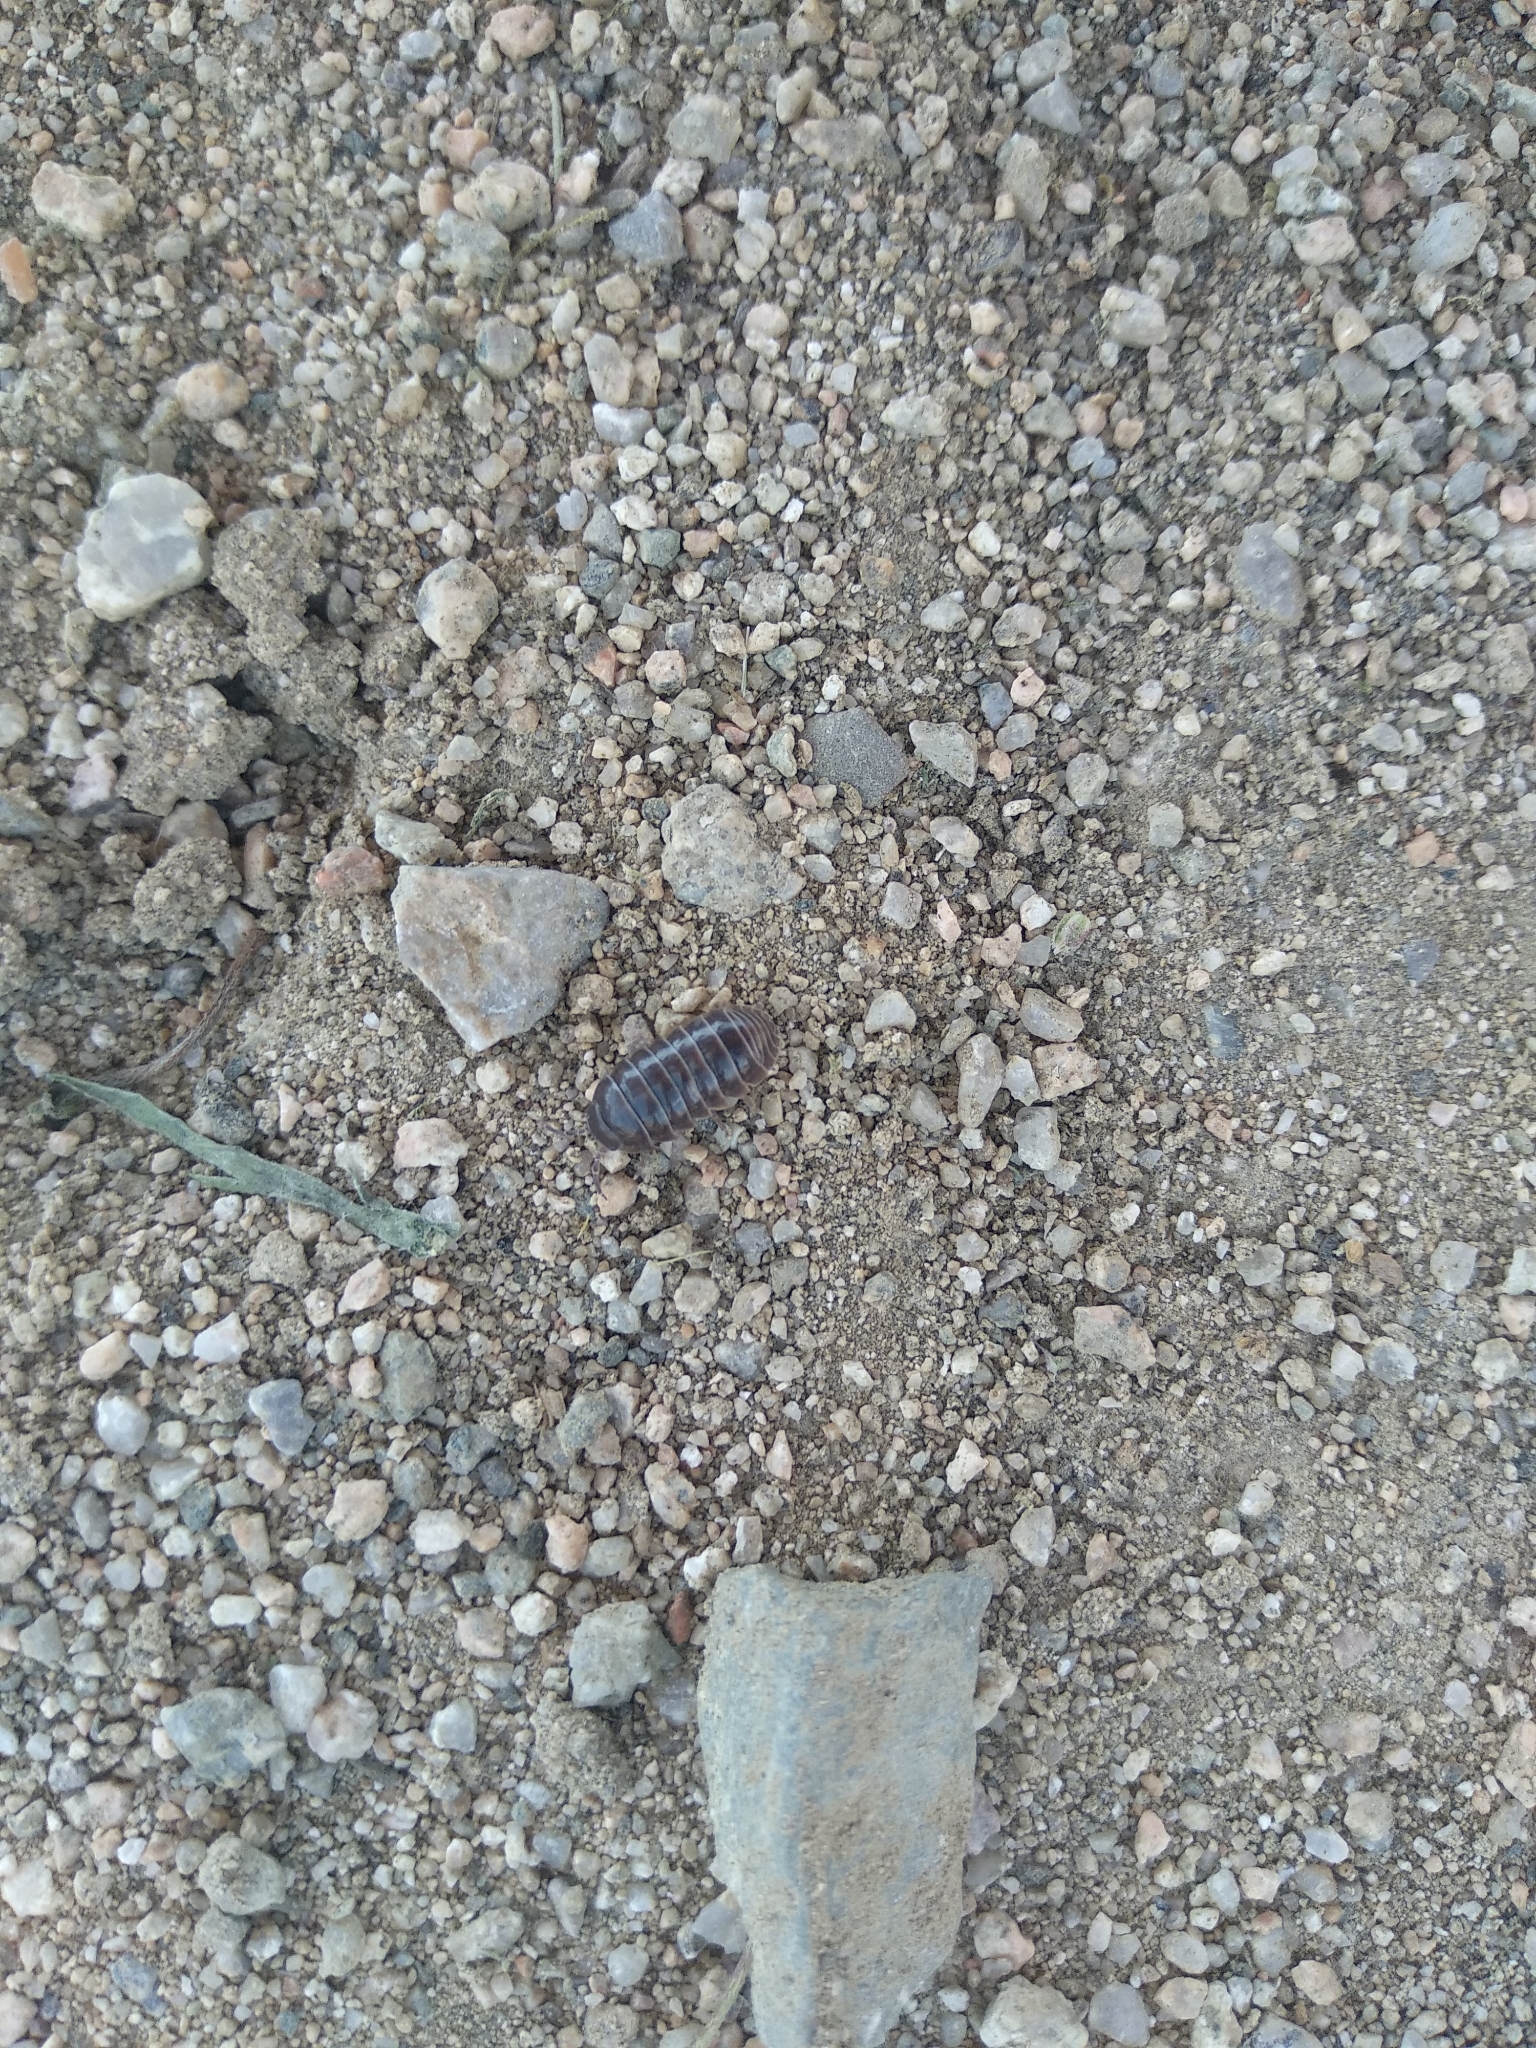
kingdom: Animalia
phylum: Arthropoda
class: Malacostraca
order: Isopoda
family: Armadillidiidae
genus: Armadillidium
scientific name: Armadillidium vulgare
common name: Common pill woodlouse
